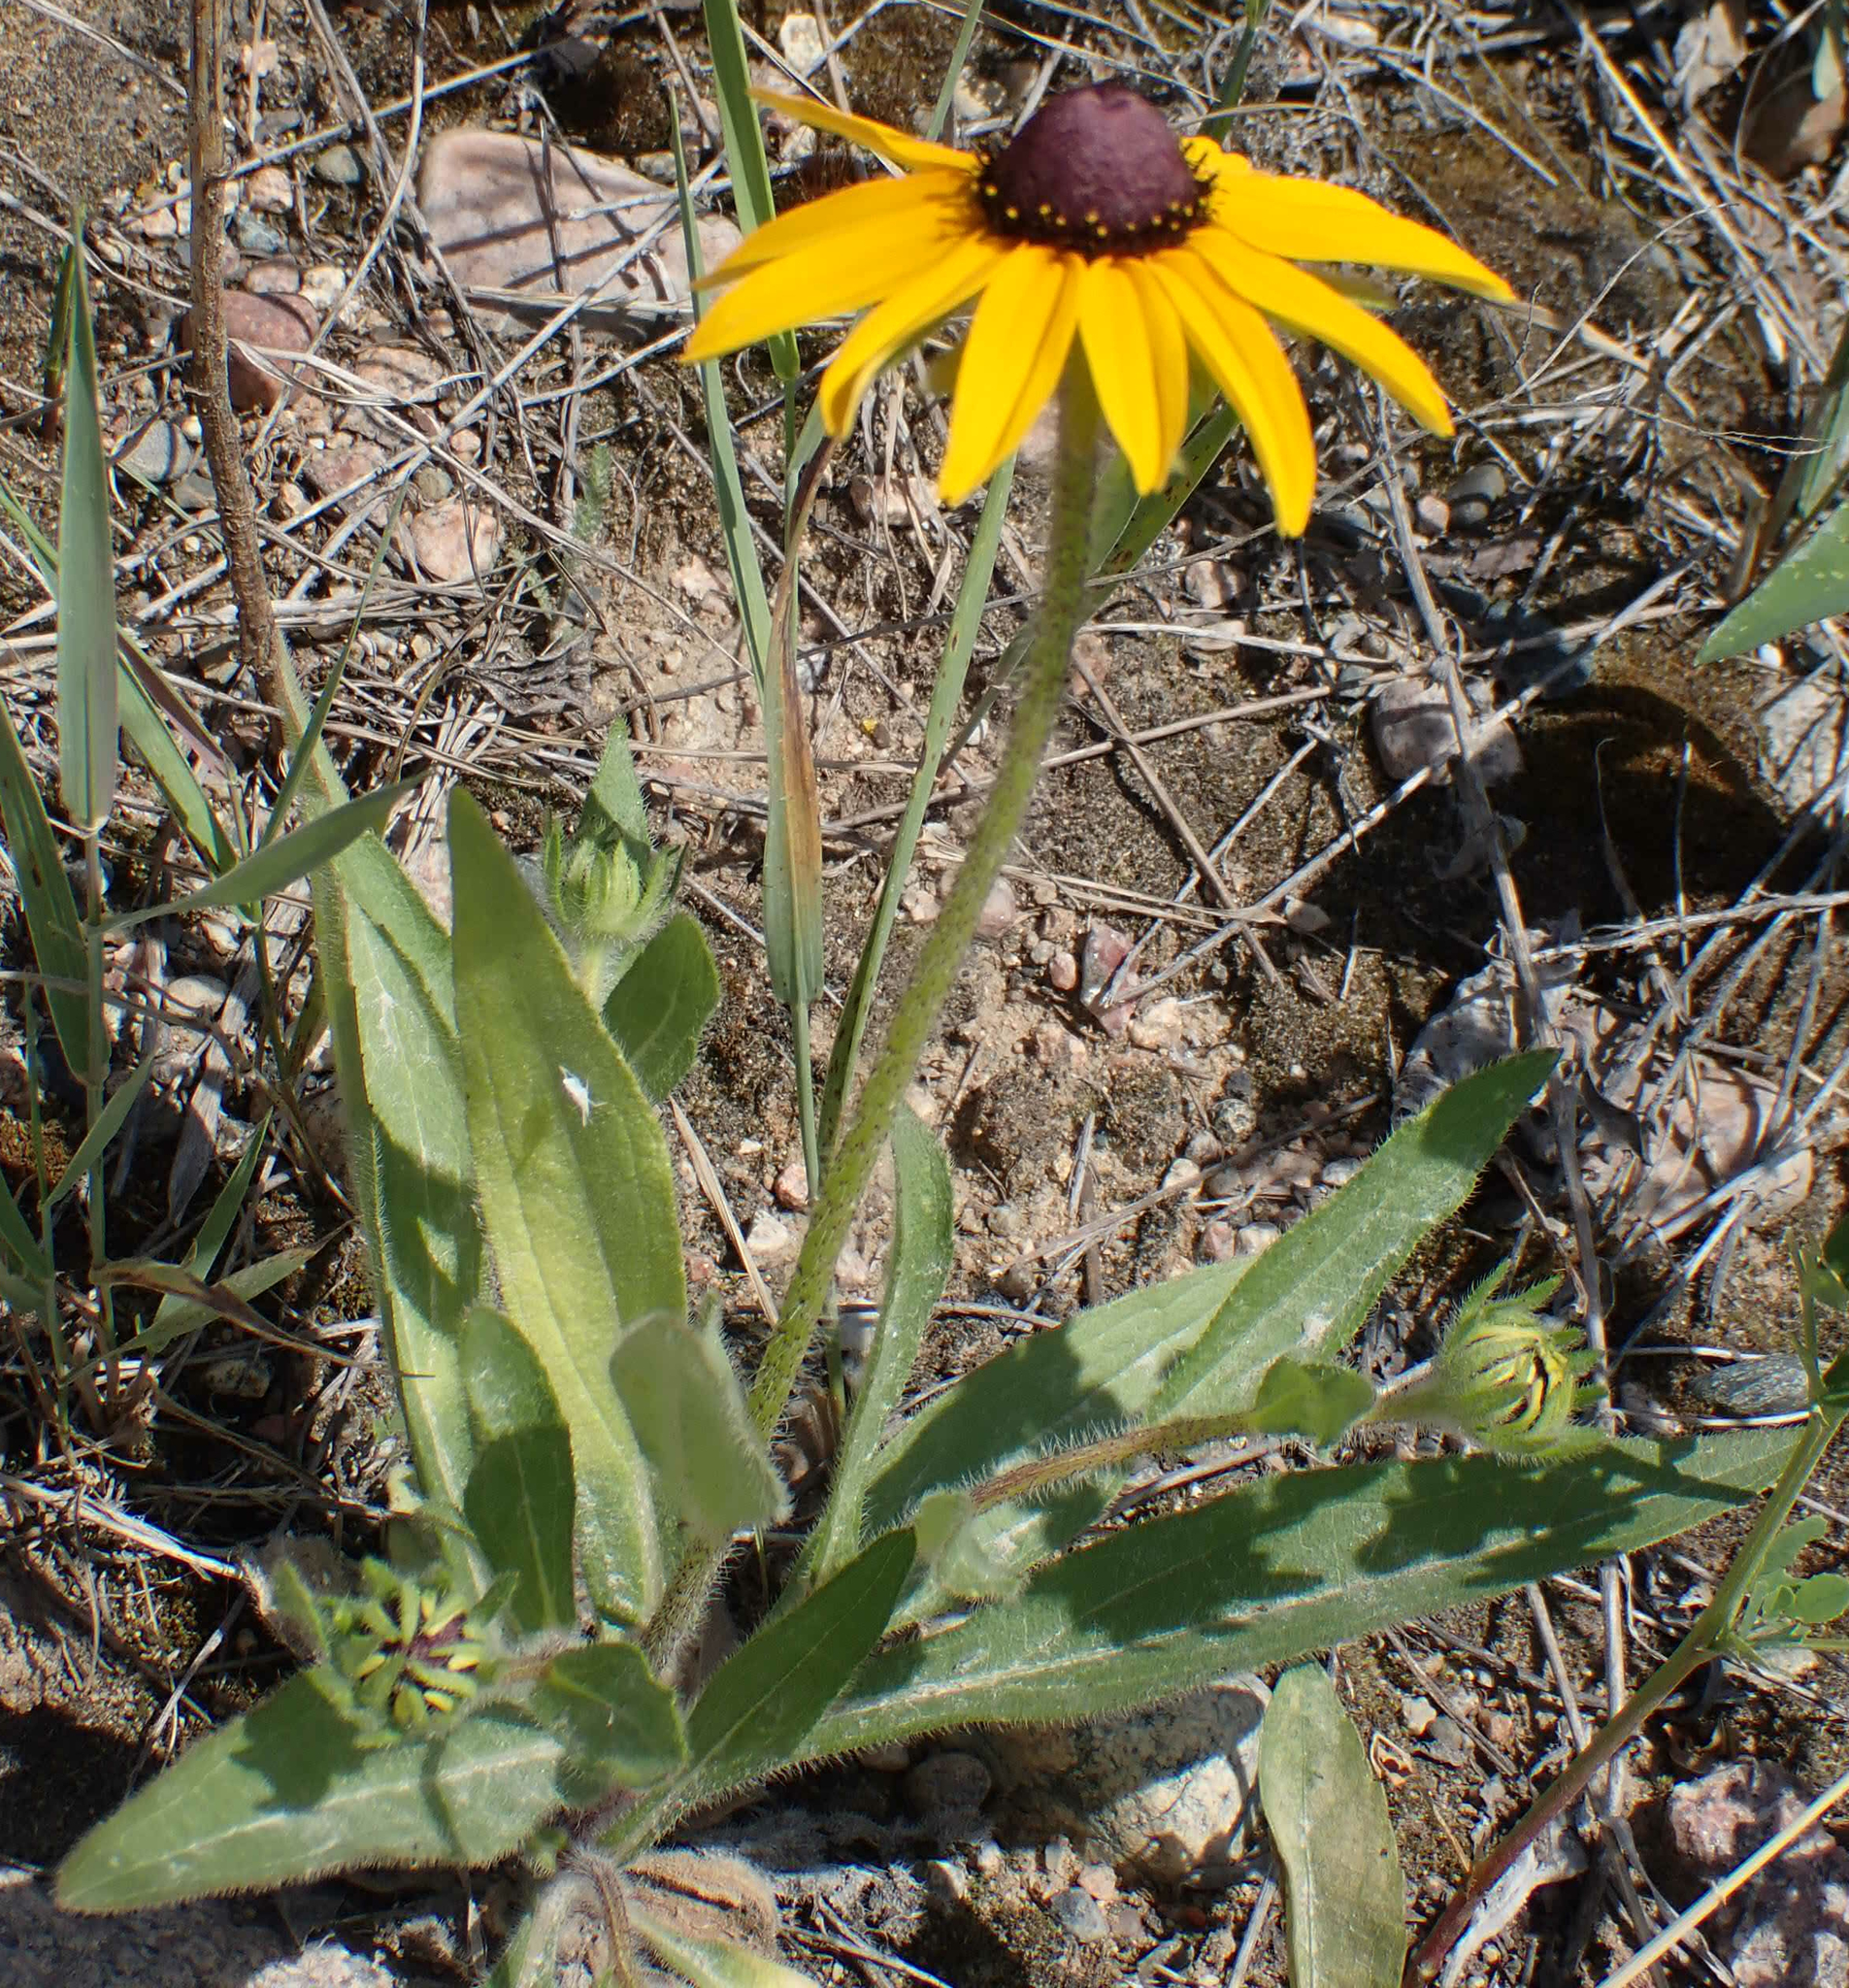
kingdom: Plantae
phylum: Tracheophyta
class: Magnoliopsida
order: Asterales
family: Asteraceae
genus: Rudbeckia
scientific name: Rudbeckia hirta
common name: Black-eyed-susan
